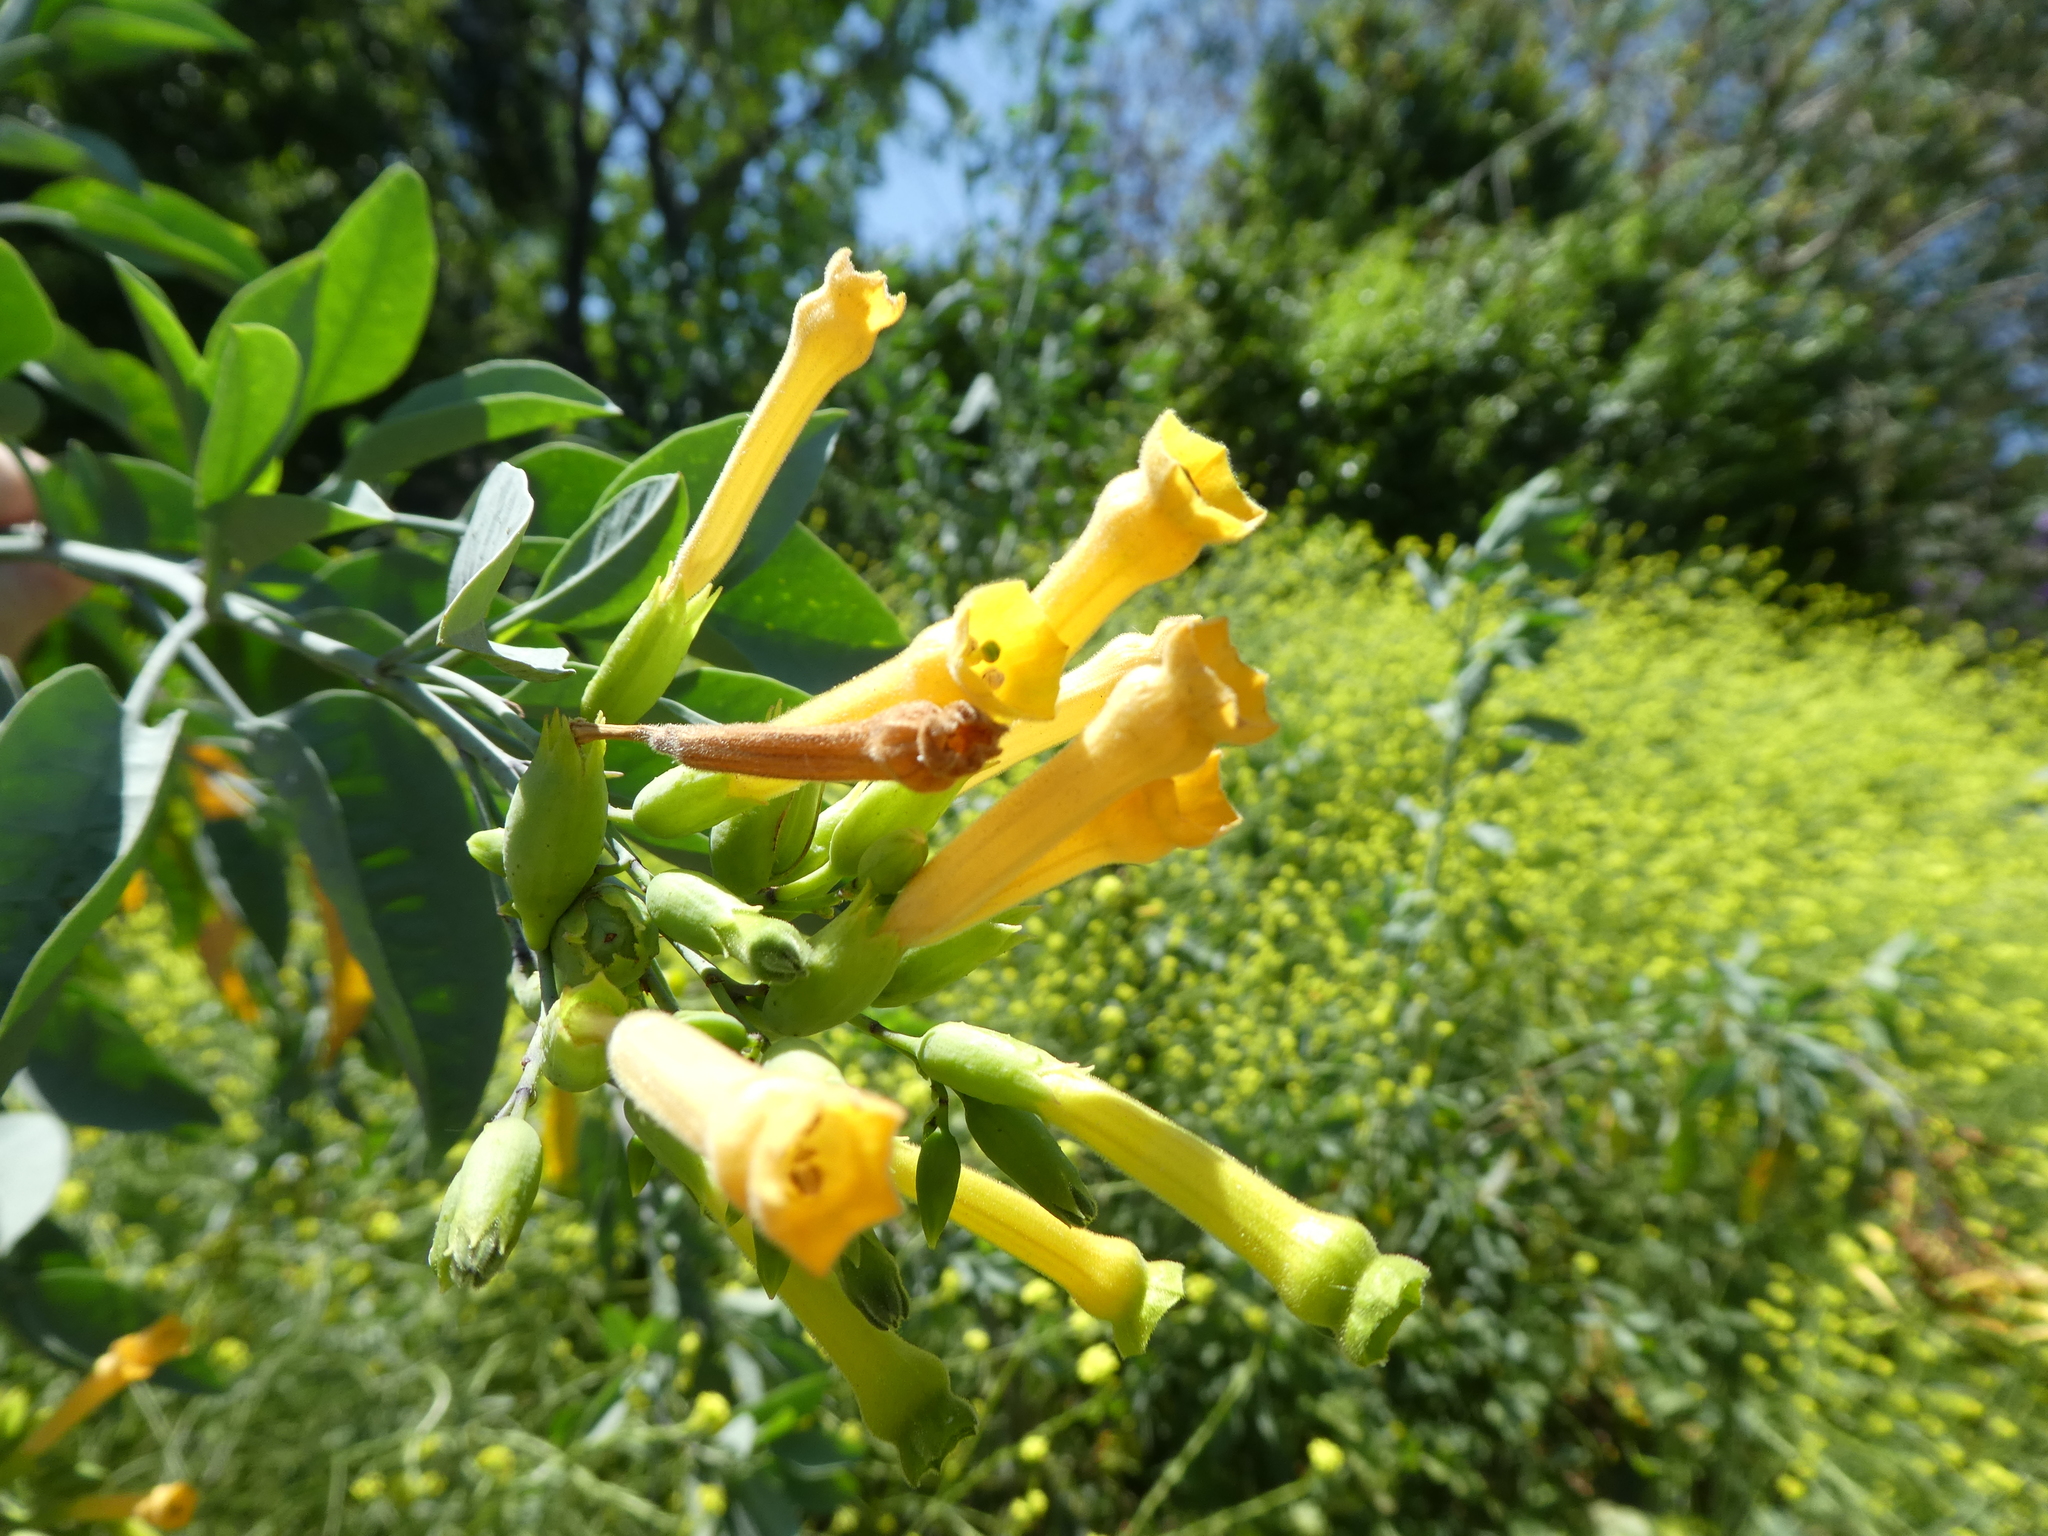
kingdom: Plantae
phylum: Tracheophyta
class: Magnoliopsida
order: Solanales
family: Solanaceae
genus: Nicotiana
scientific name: Nicotiana glauca
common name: Tree tobacco
